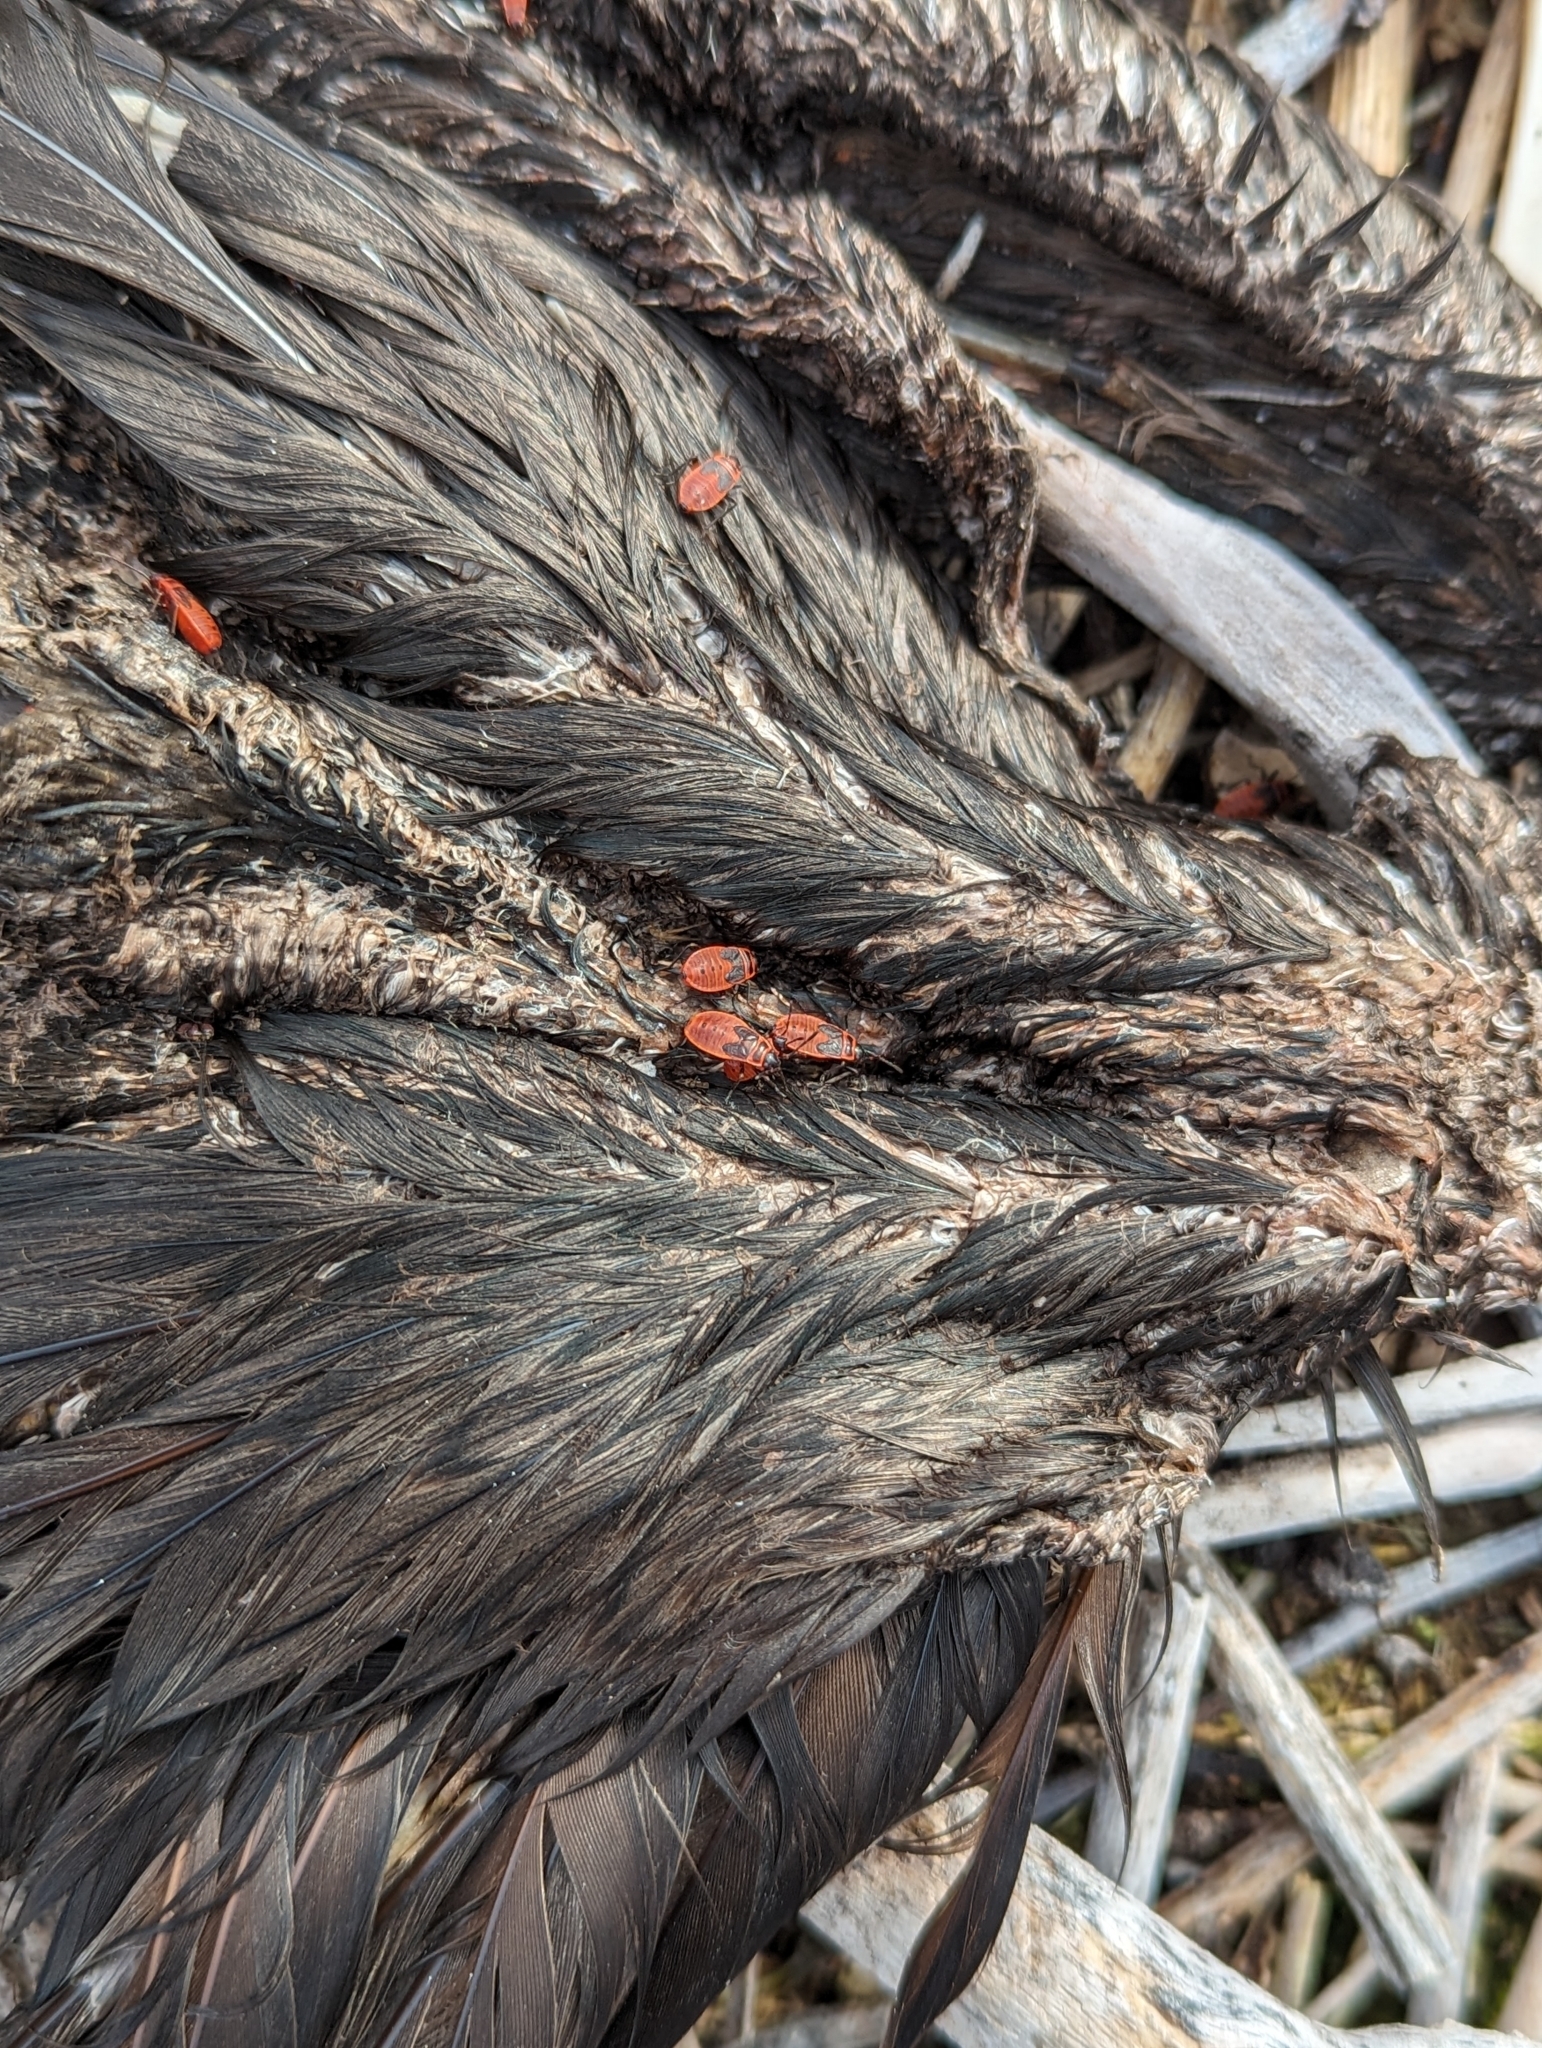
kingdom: Animalia
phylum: Arthropoda
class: Insecta
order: Hemiptera
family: Pyrrhocoridae
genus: Pyrrhocoris
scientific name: Pyrrhocoris apterus
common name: Firebug
